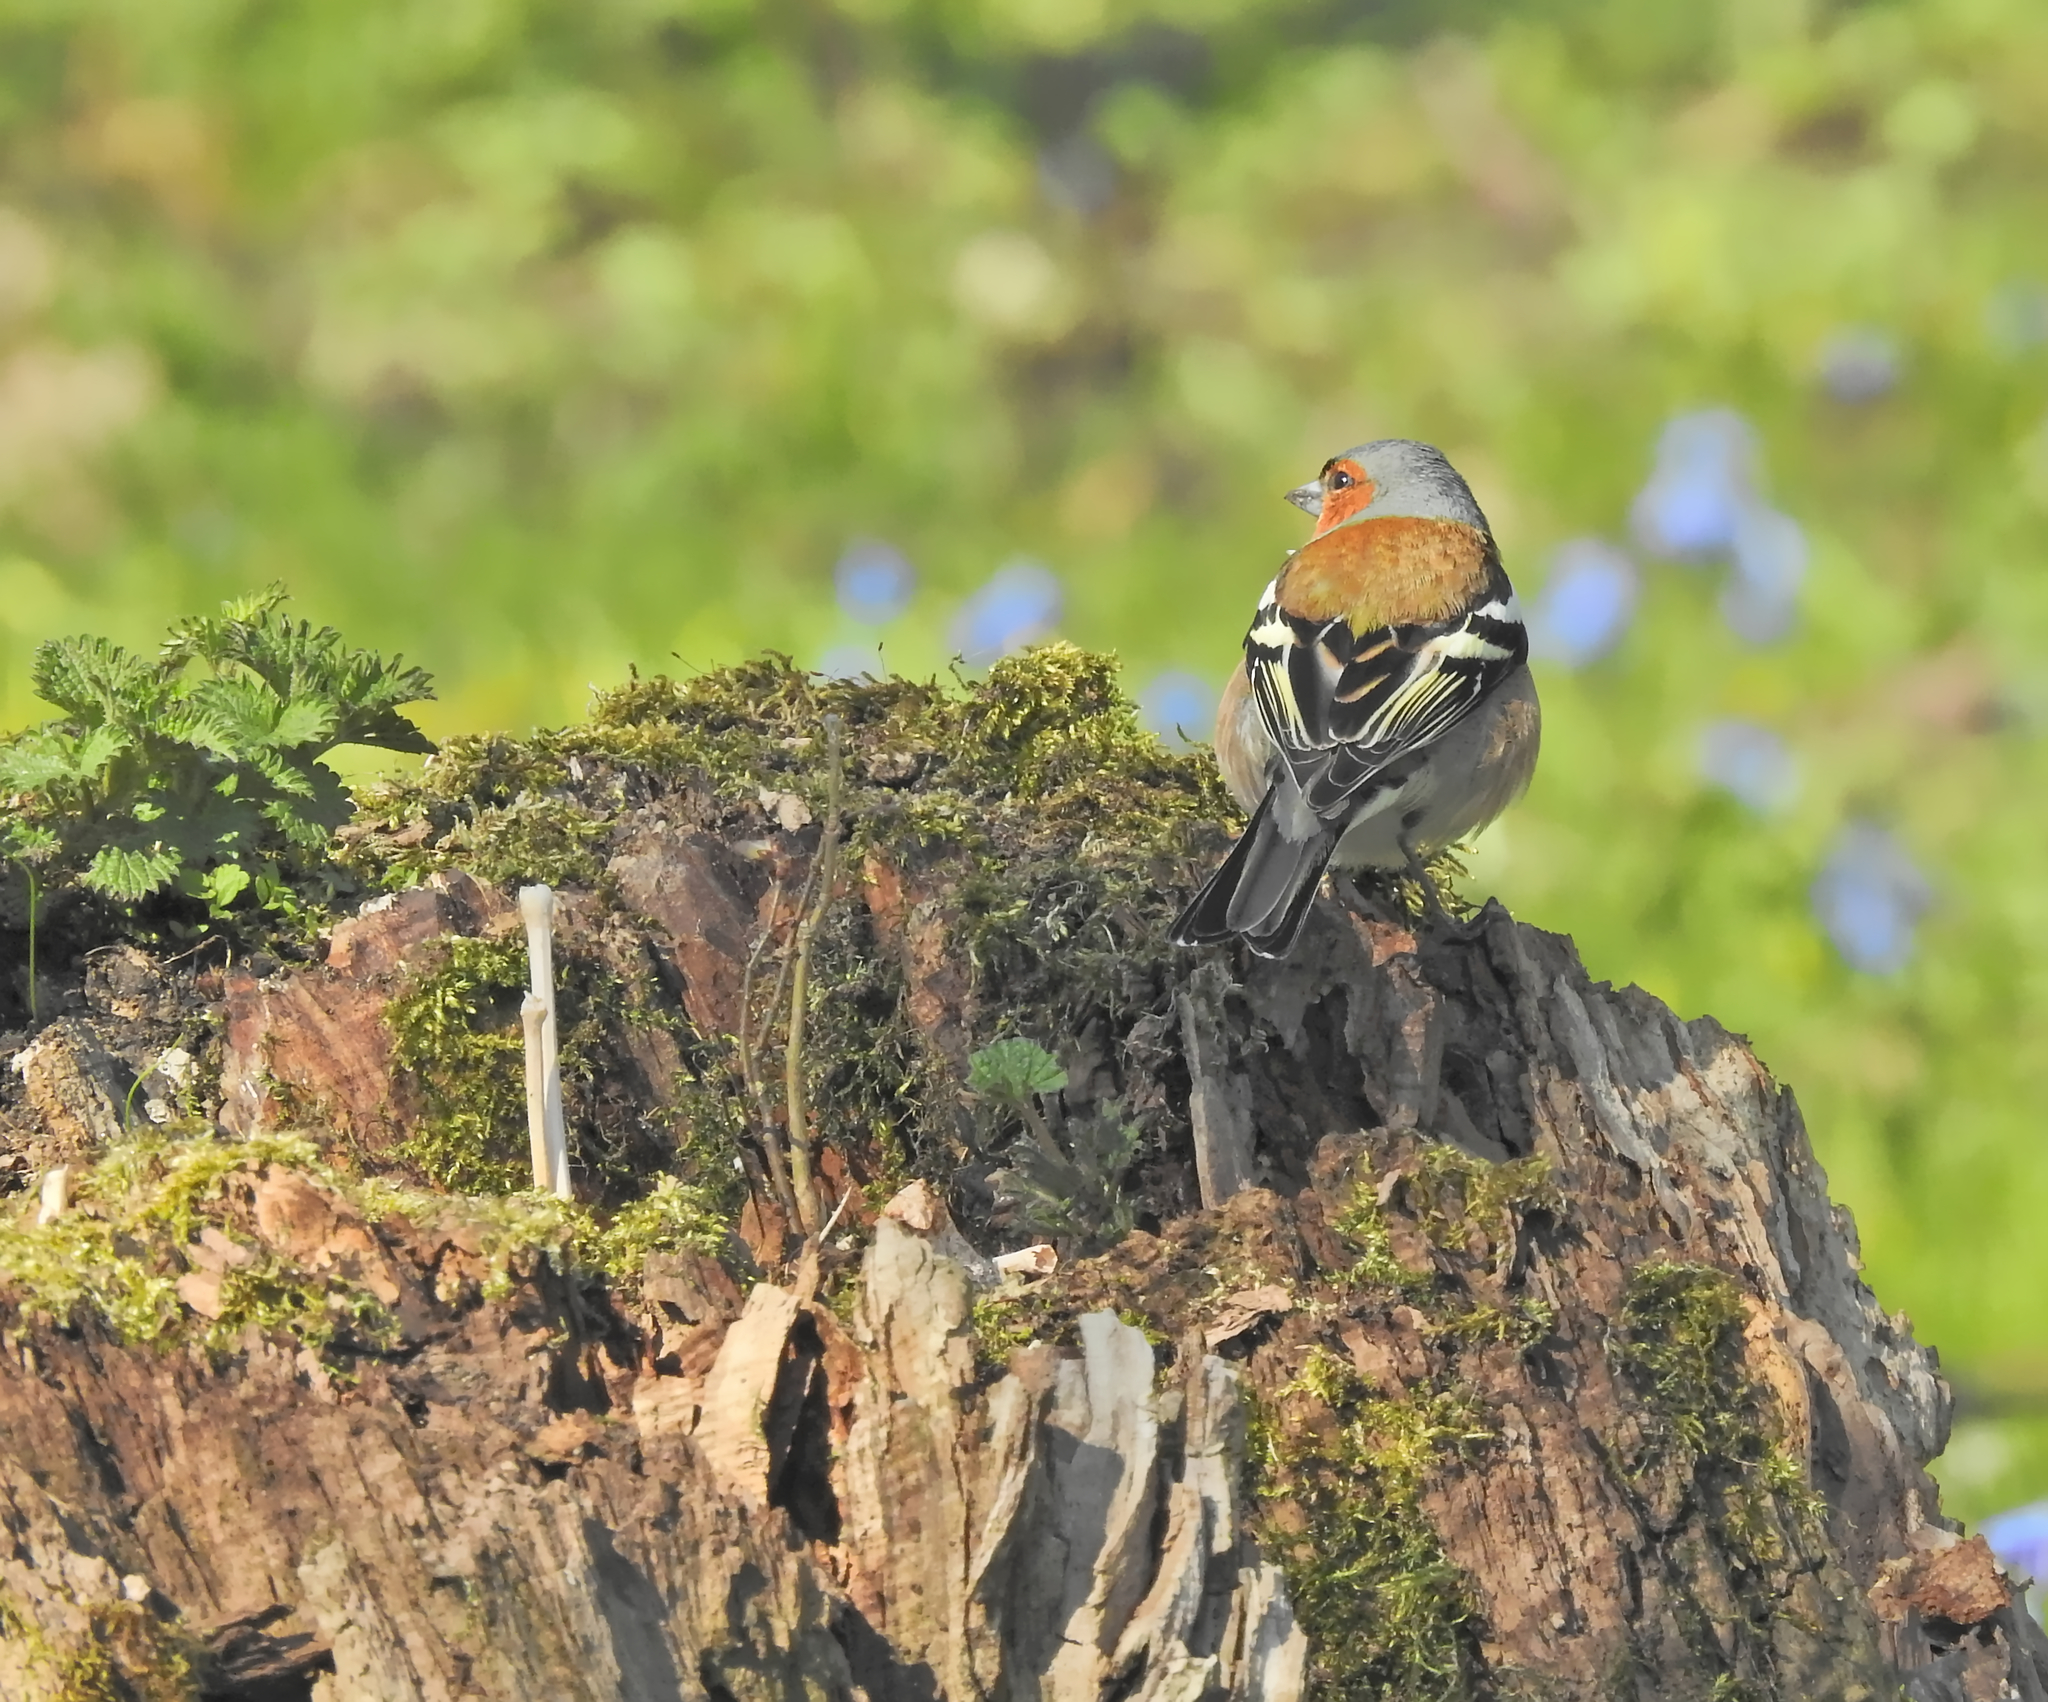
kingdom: Animalia
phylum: Chordata
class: Aves
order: Passeriformes
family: Fringillidae
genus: Fringilla
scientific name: Fringilla coelebs
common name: Common chaffinch
